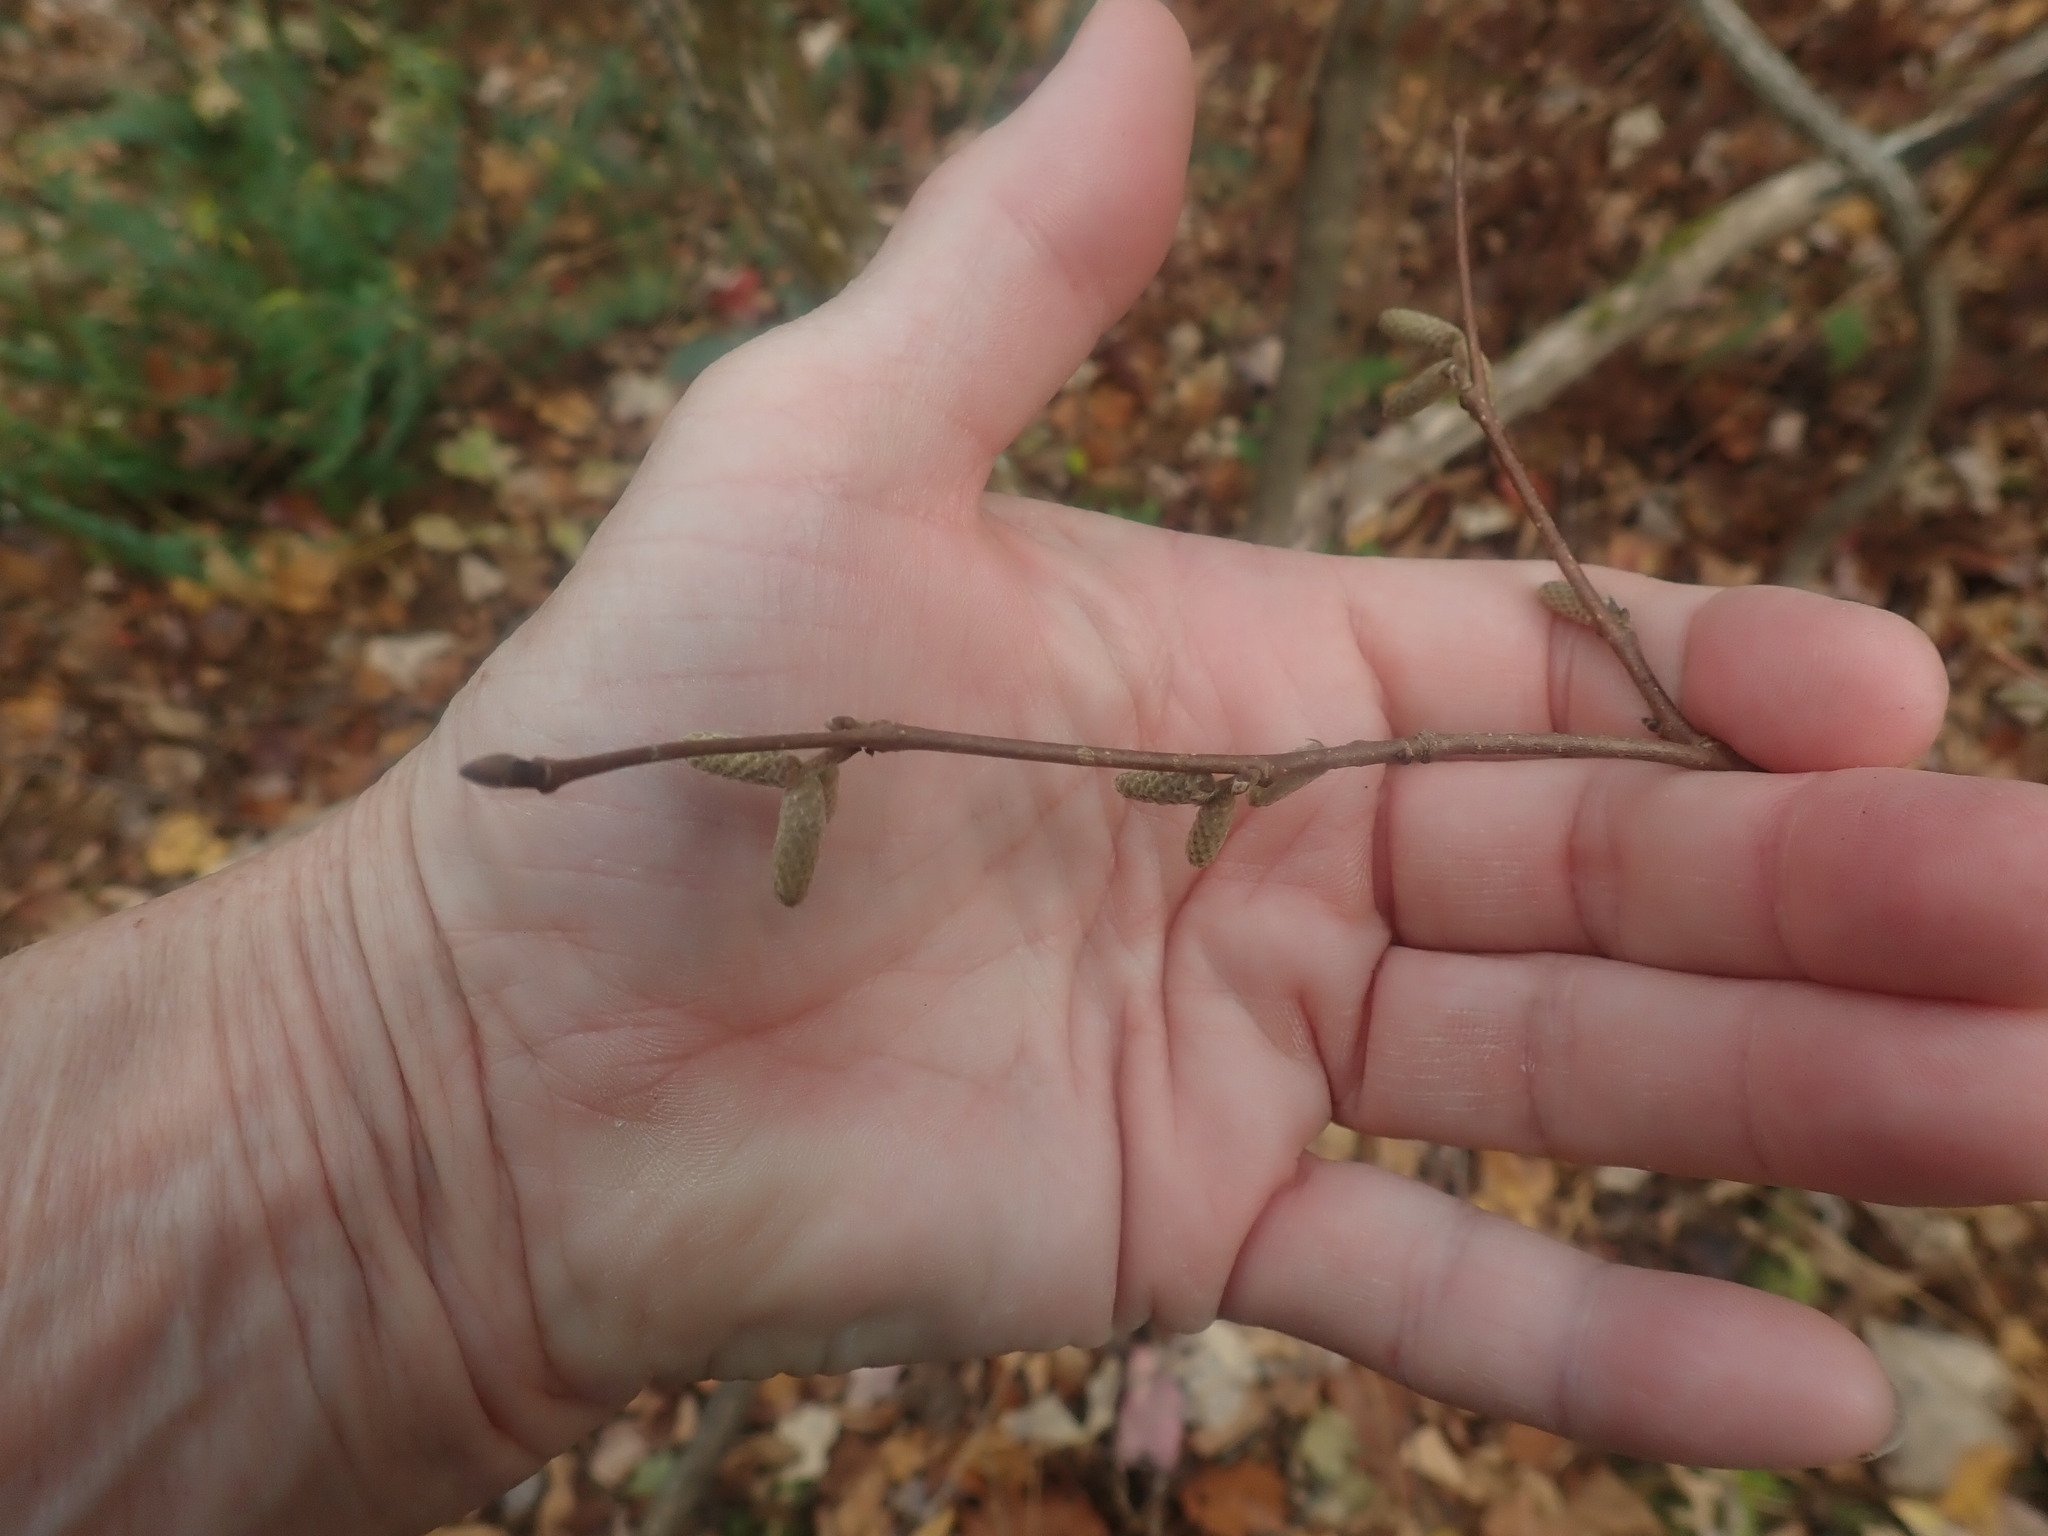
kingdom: Plantae
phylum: Tracheophyta
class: Magnoliopsida
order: Fagales
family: Betulaceae
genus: Corylus
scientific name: Corylus cornuta
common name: Beaked hazel
